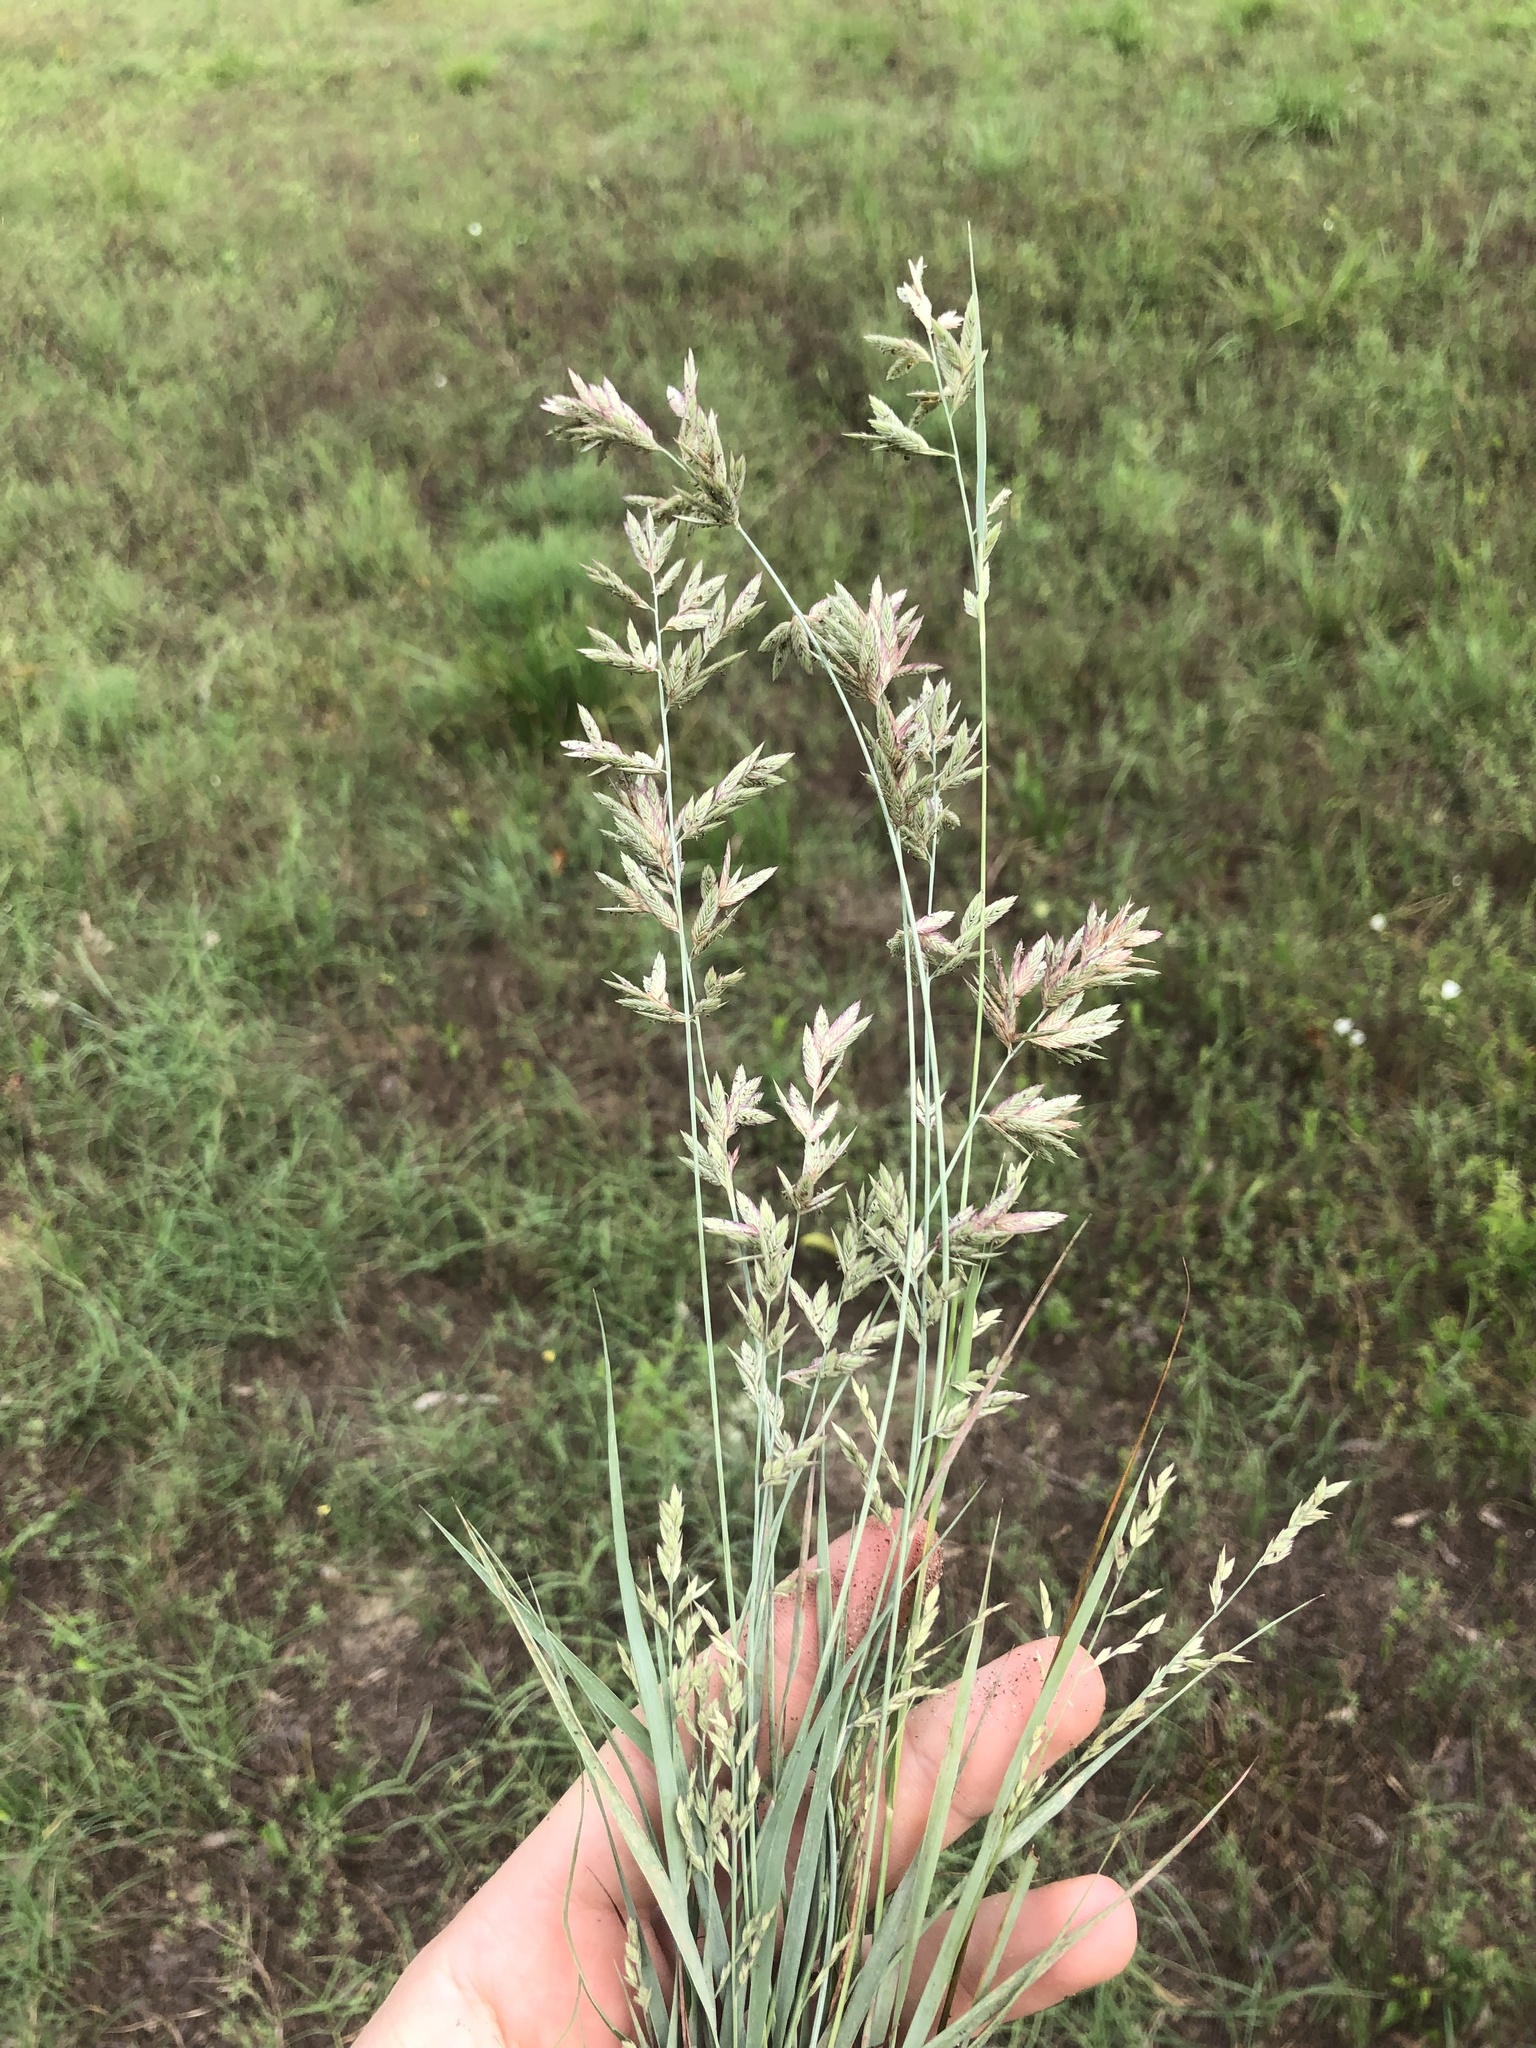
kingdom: Plantae
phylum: Tracheophyta
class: Liliopsida
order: Poales
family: Poaceae
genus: Eragrostis
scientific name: Eragrostis secundiflora
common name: Red love grass
